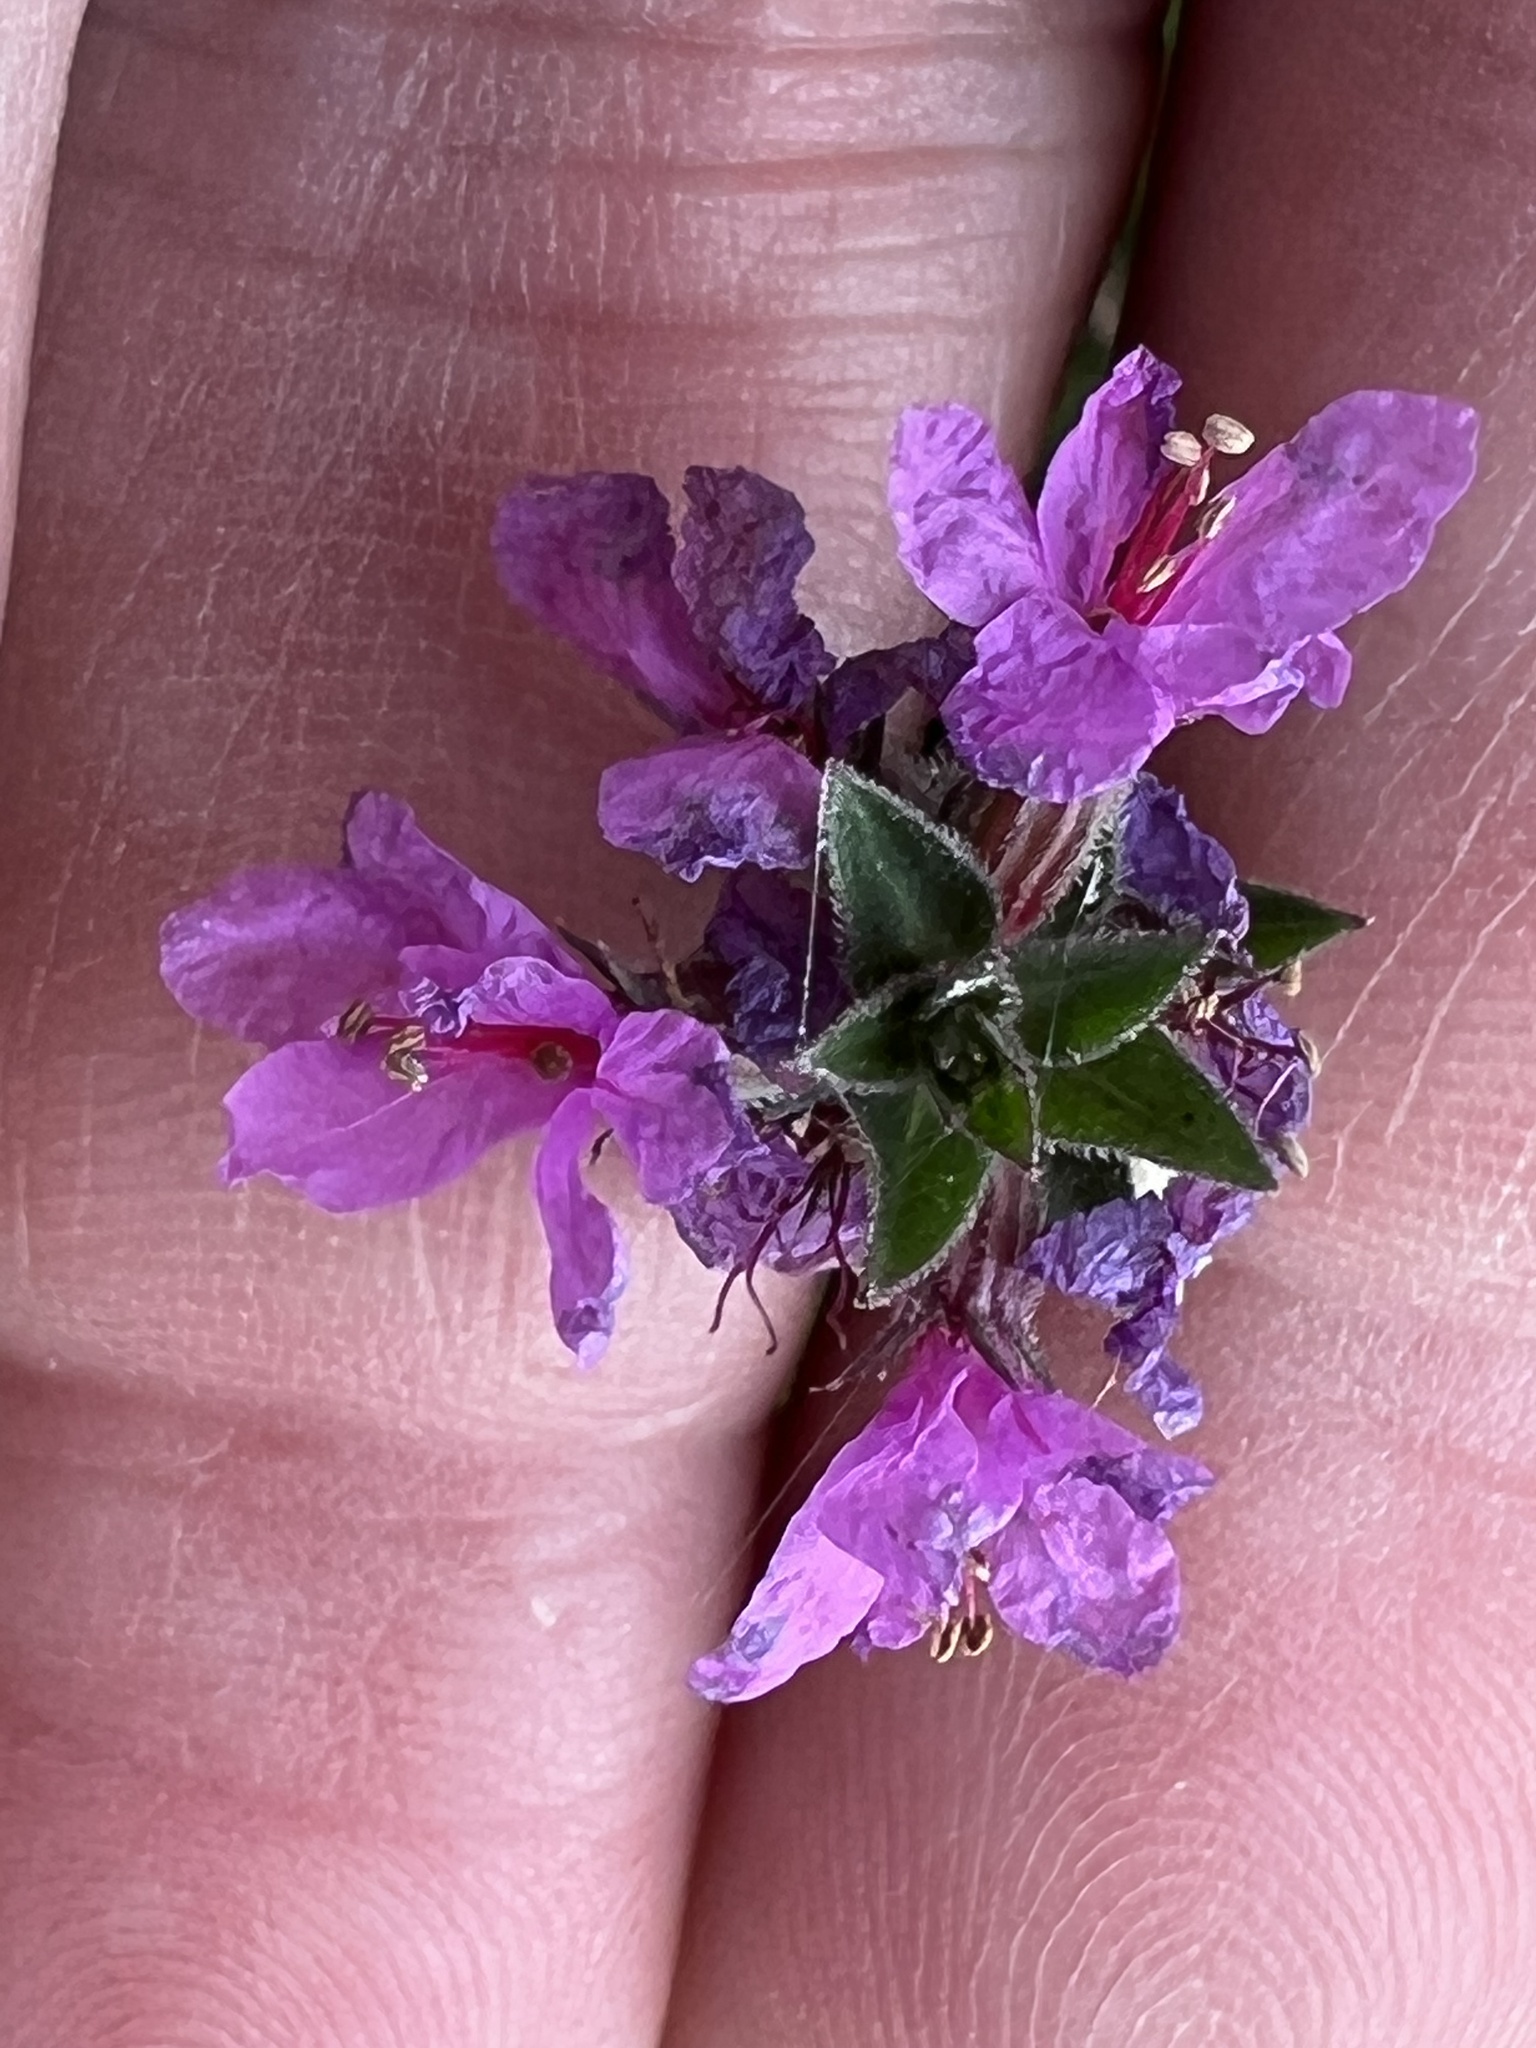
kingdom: Plantae
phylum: Tracheophyta
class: Magnoliopsida
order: Myrtales
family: Lythraceae
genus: Lythrum
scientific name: Lythrum salicaria
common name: Purple loosestrife
